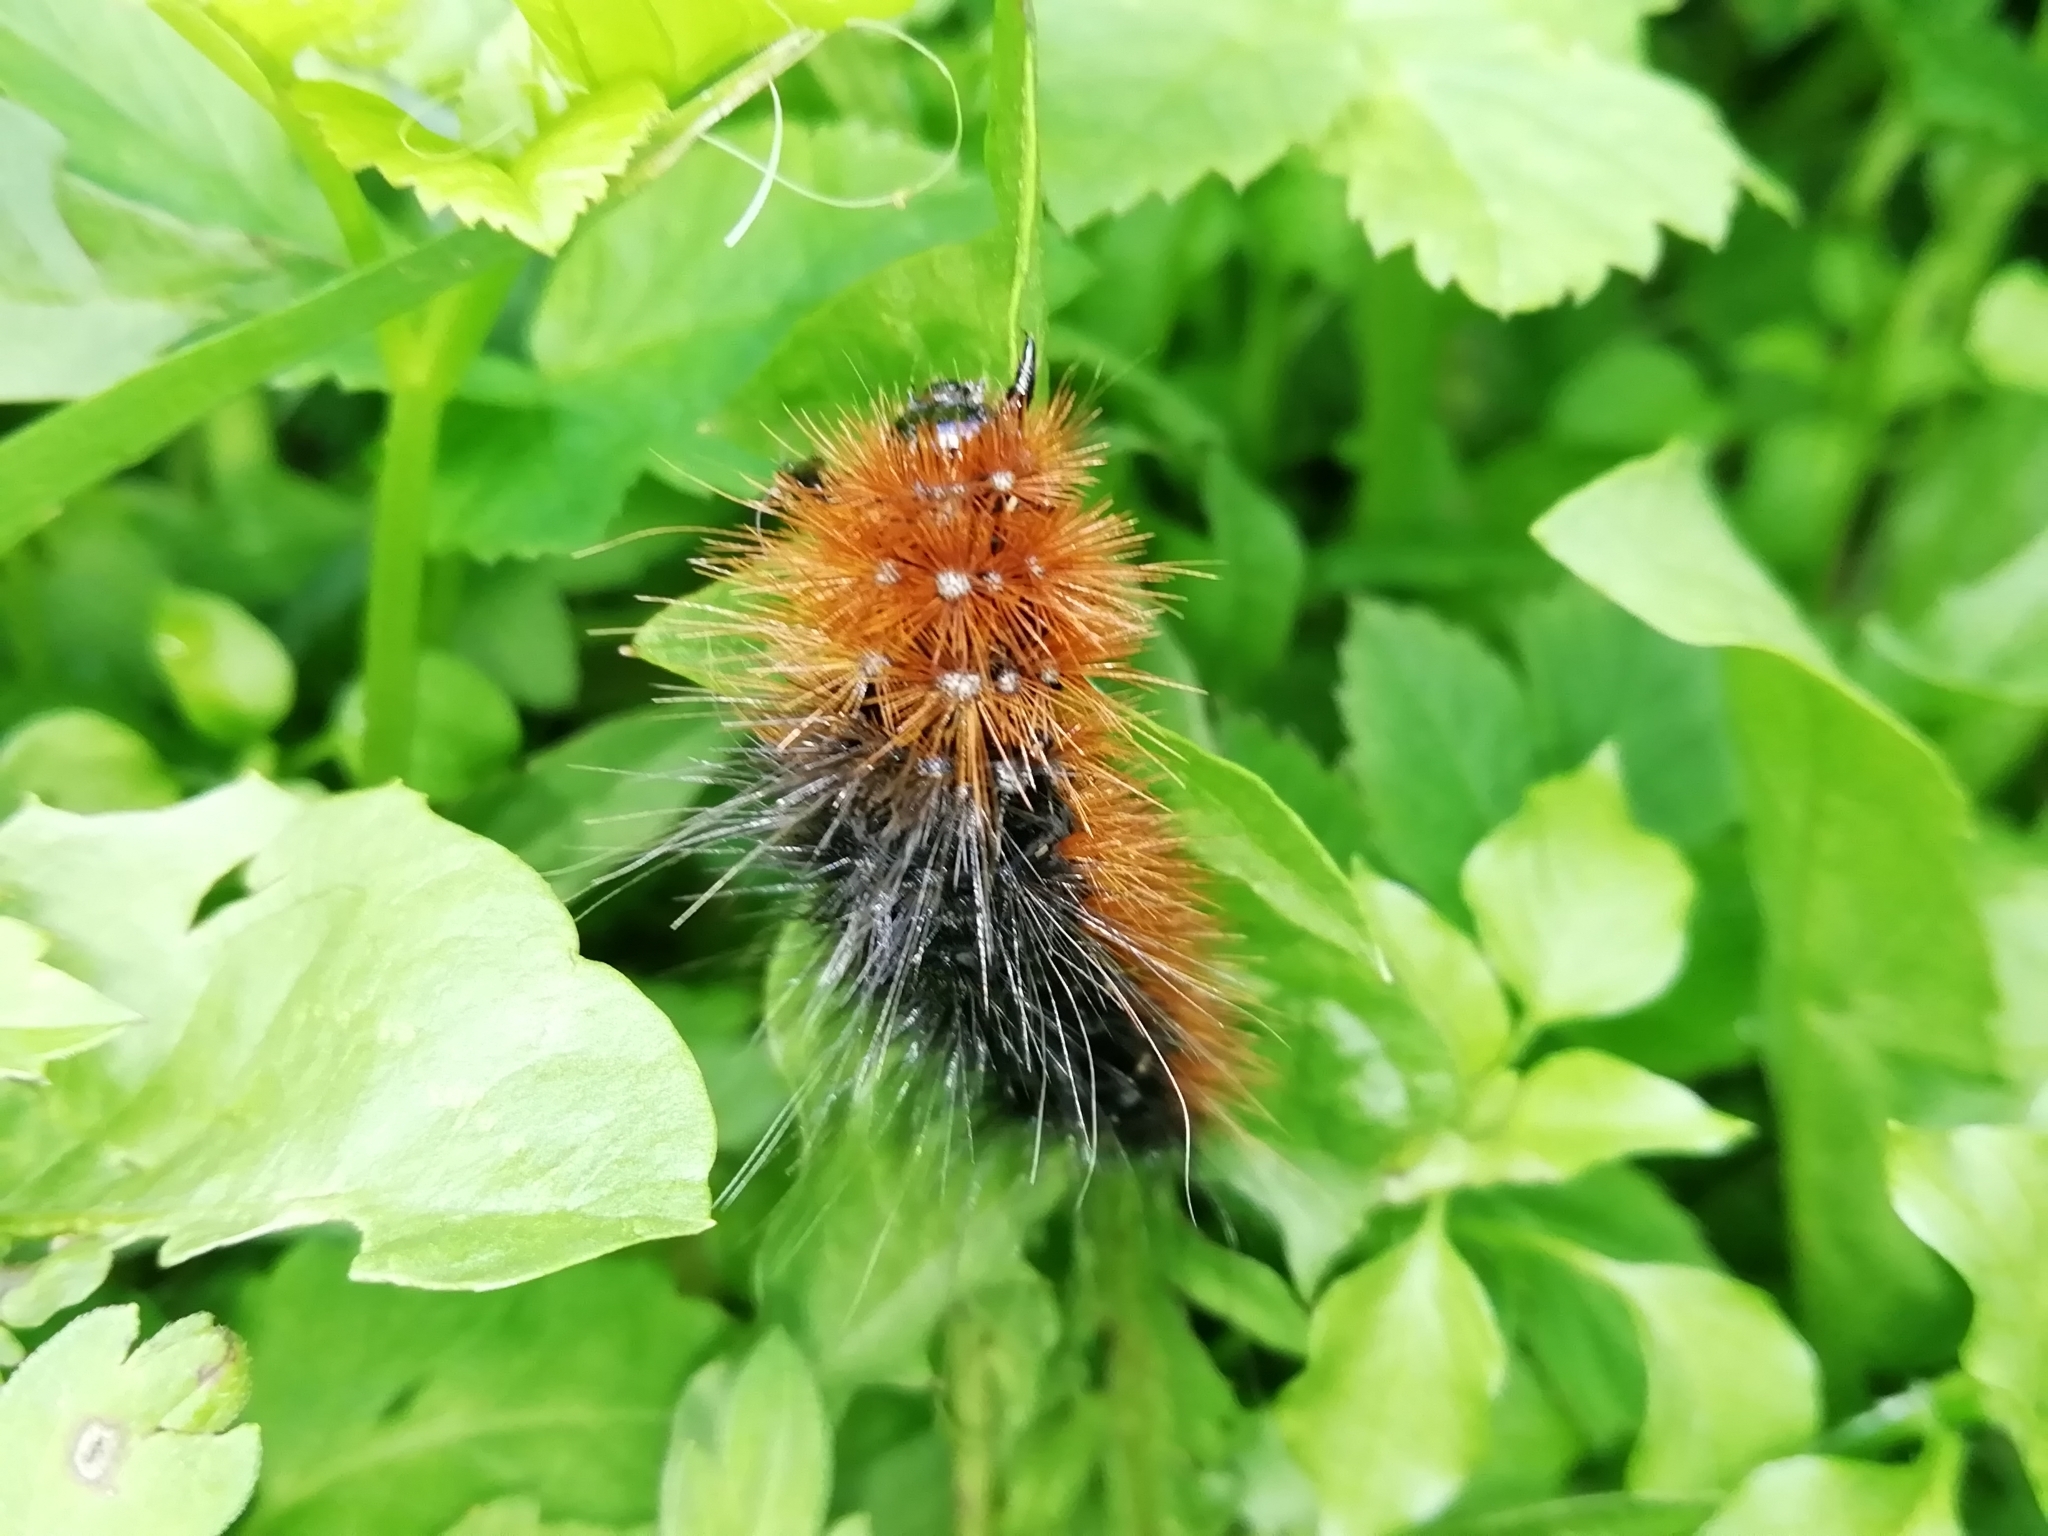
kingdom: Animalia
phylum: Arthropoda
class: Insecta
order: Lepidoptera
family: Erebidae
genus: Arctia
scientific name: Arctia caja
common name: Garden tiger
